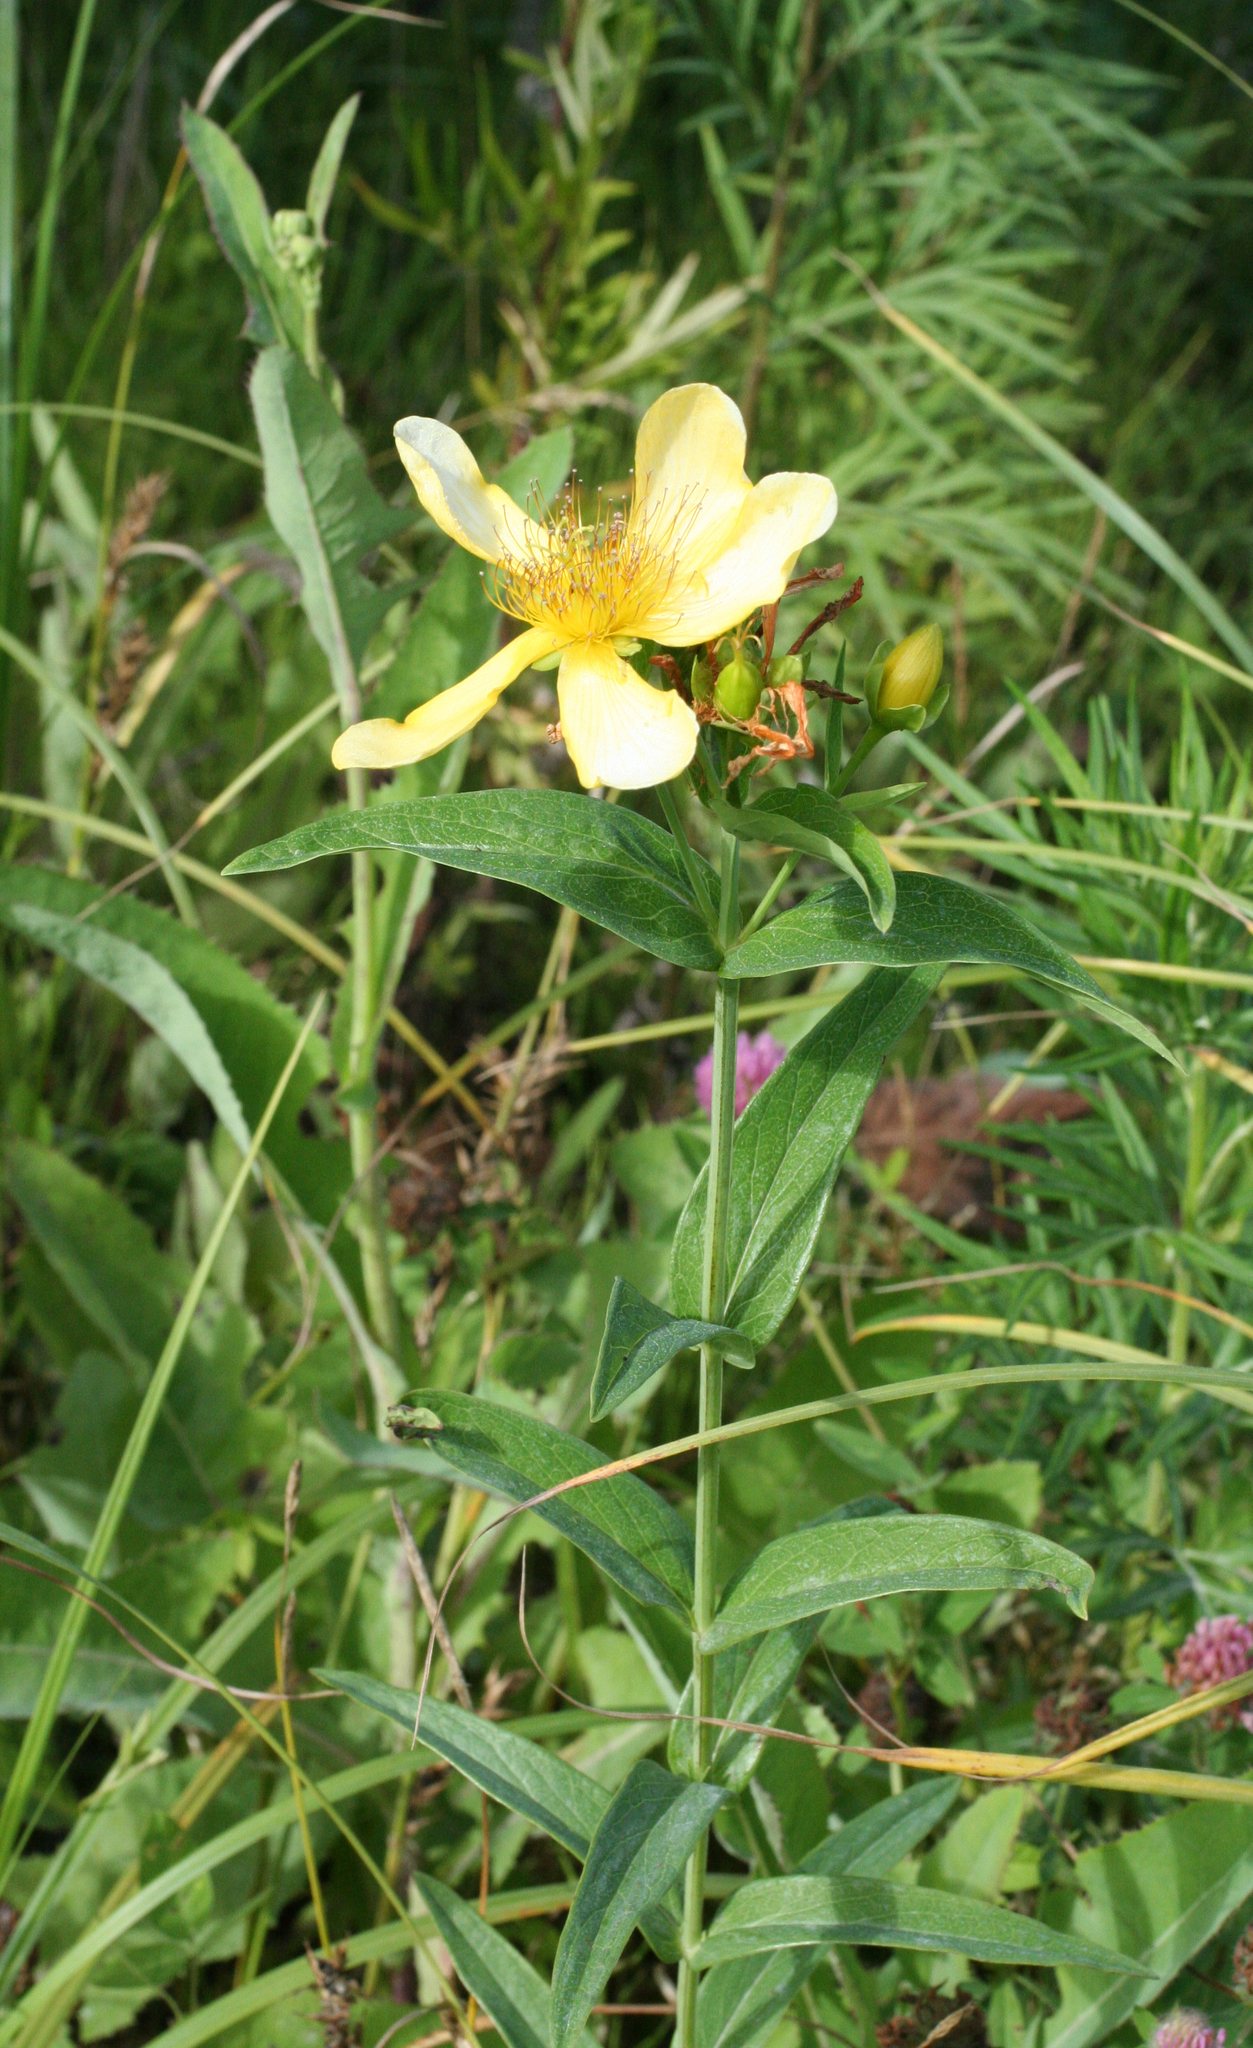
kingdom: Plantae
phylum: Tracheophyta
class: Magnoliopsida
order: Malpighiales
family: Hypericaceae
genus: Hypericum
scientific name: Hypericum ascyron
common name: Giant st. john's-wort
